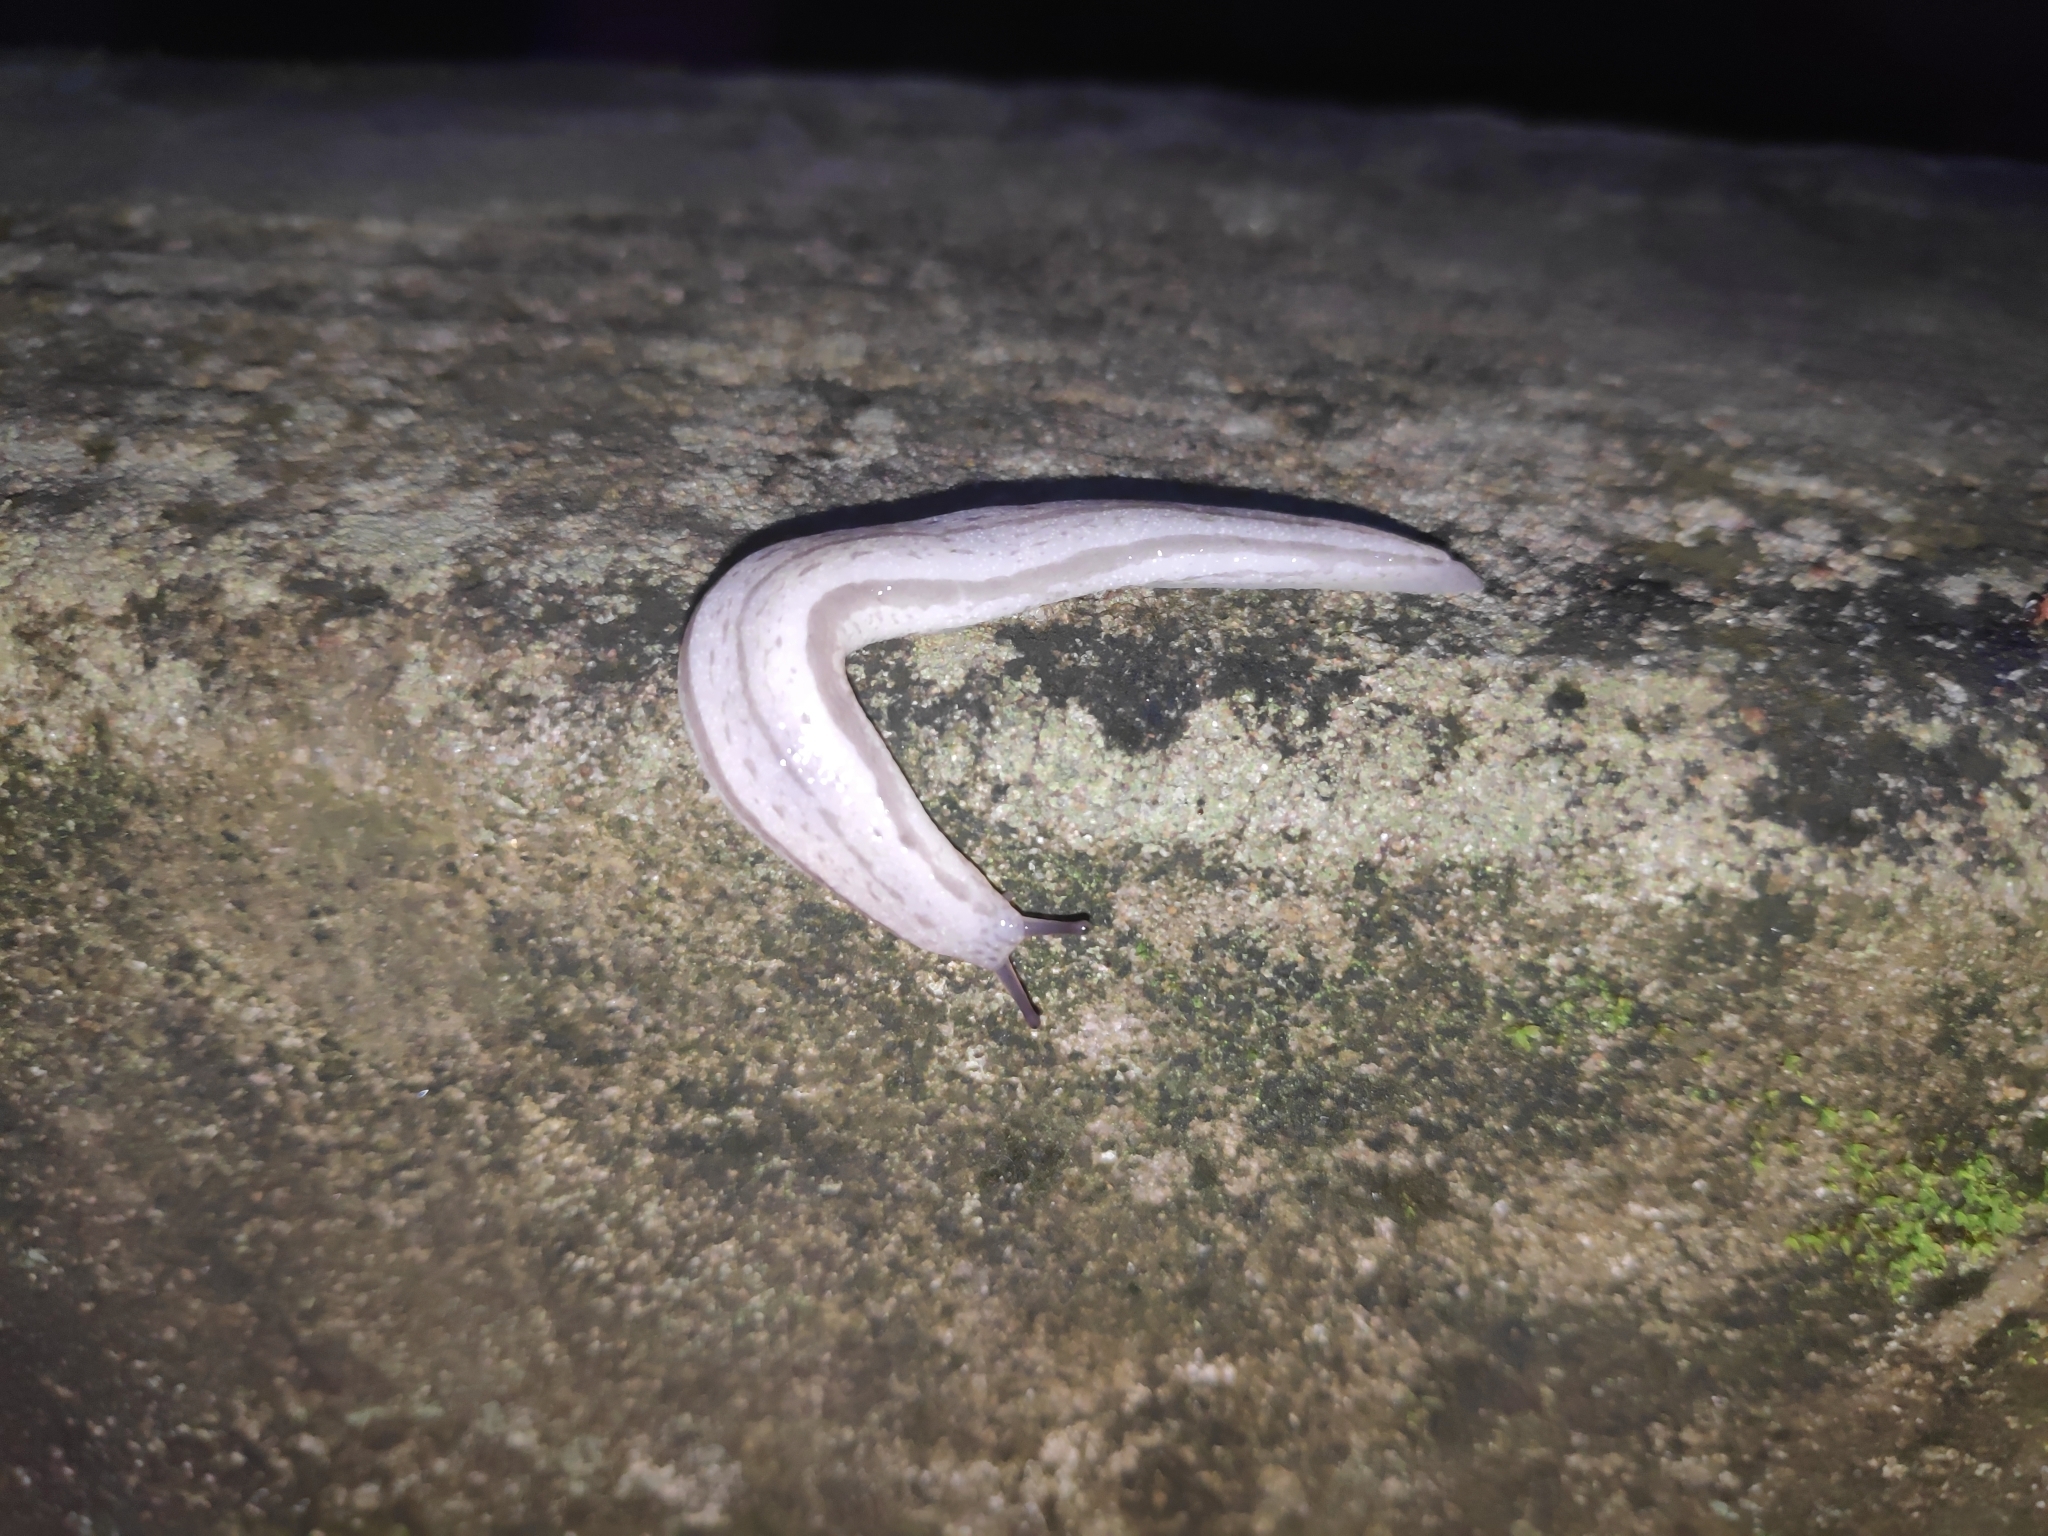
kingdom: Animalia
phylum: Mollusca
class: Gastropoda
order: Stylommatophora
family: Philomycidae
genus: Meghimatium
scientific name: Meghimatium bilineatum
